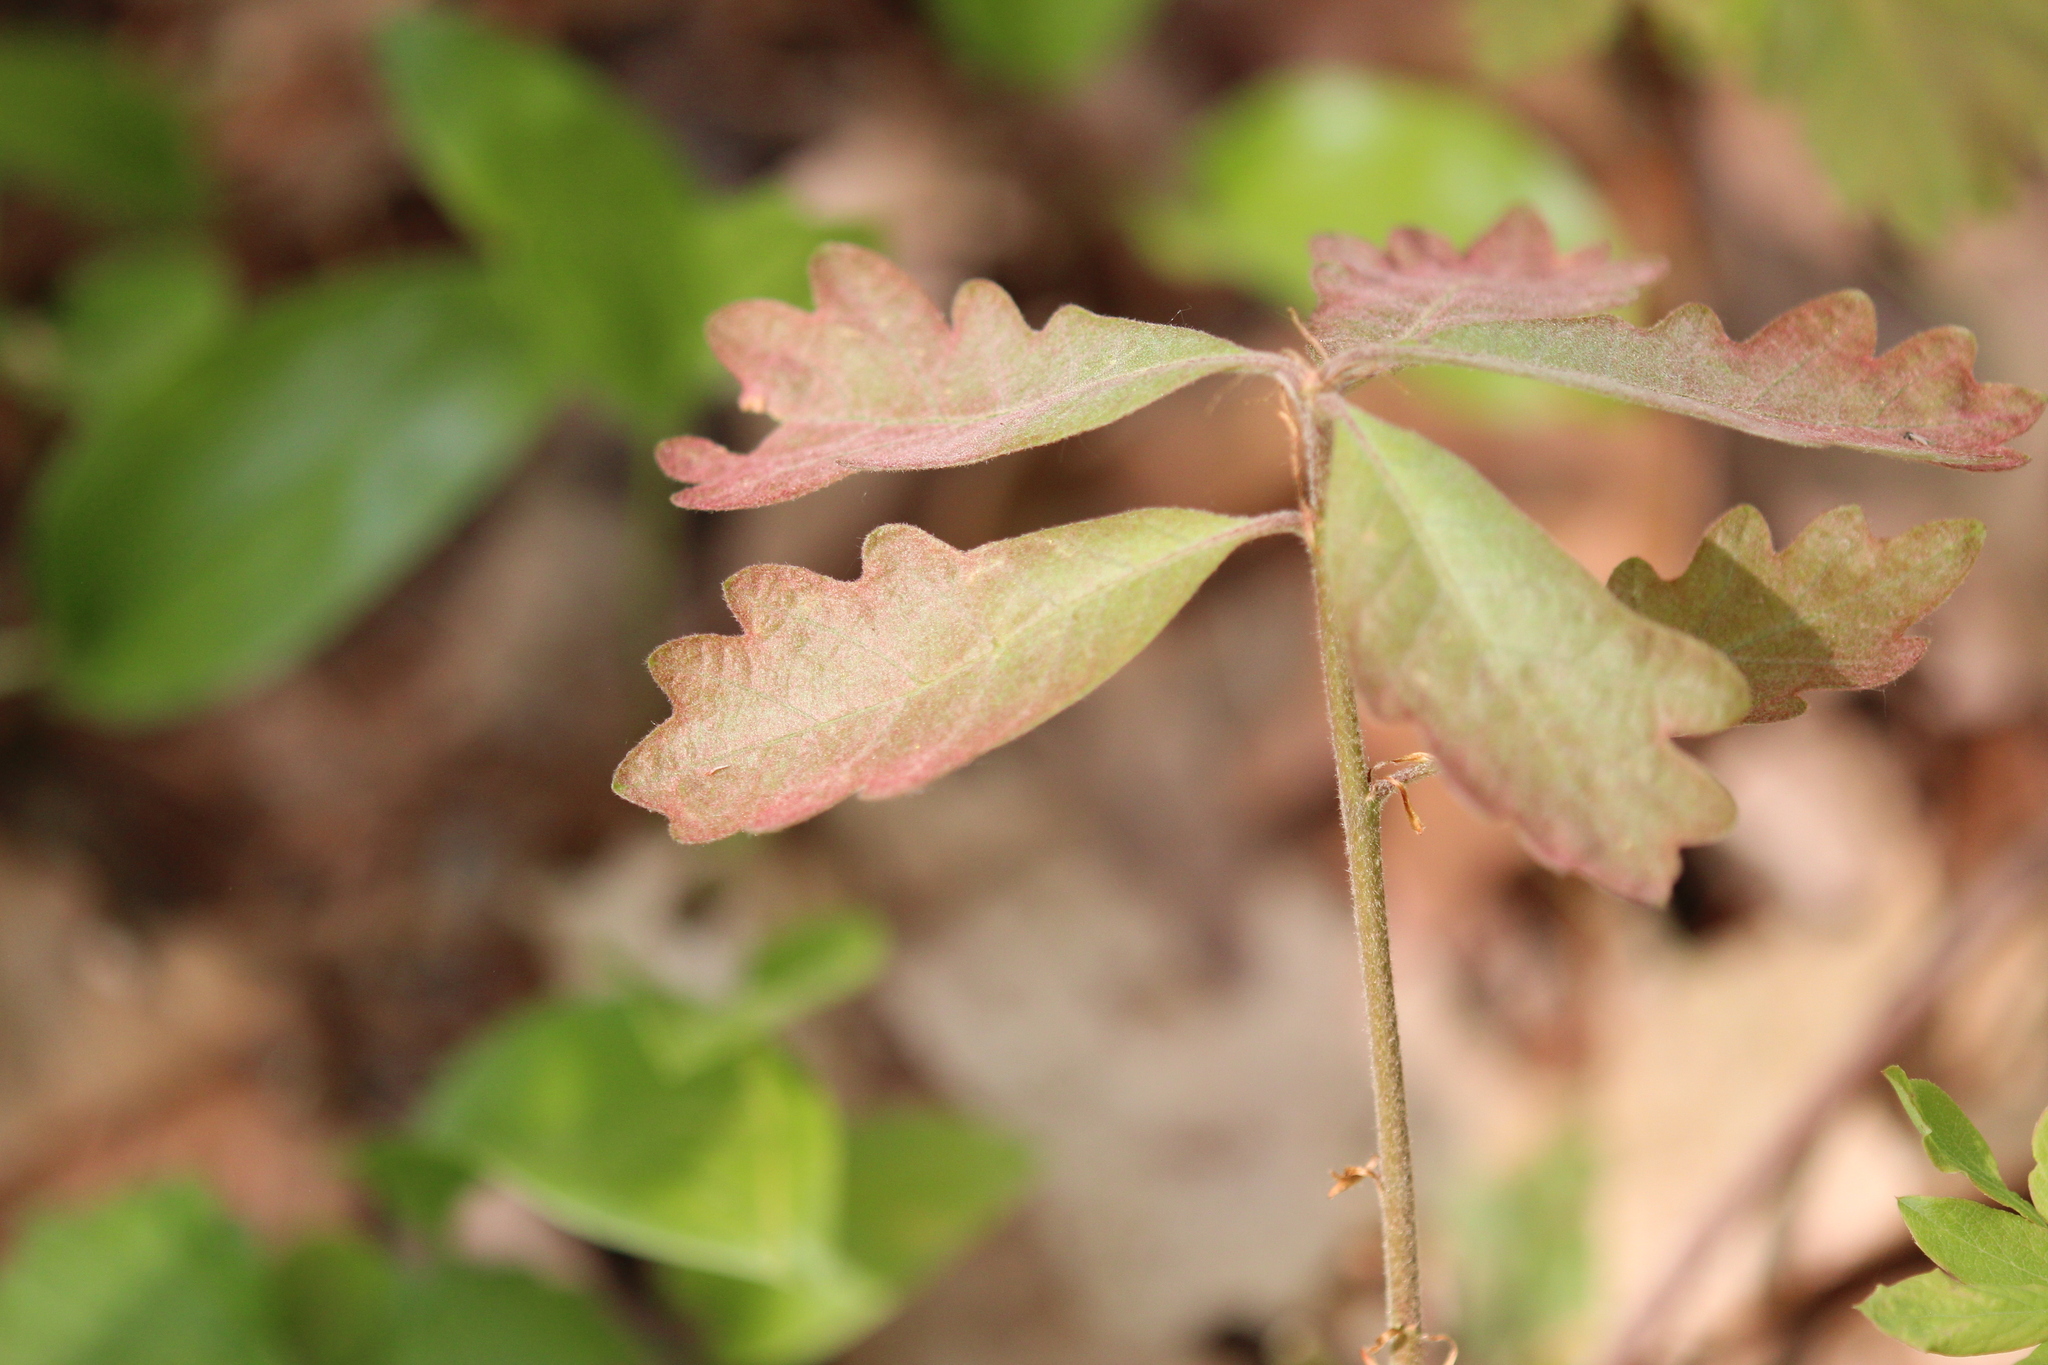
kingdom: Plantae
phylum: Tracheophyta
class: Magnoliopsida
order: Fagales
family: Fagaceae
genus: Quercus
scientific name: Quercus alba
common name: White oak
